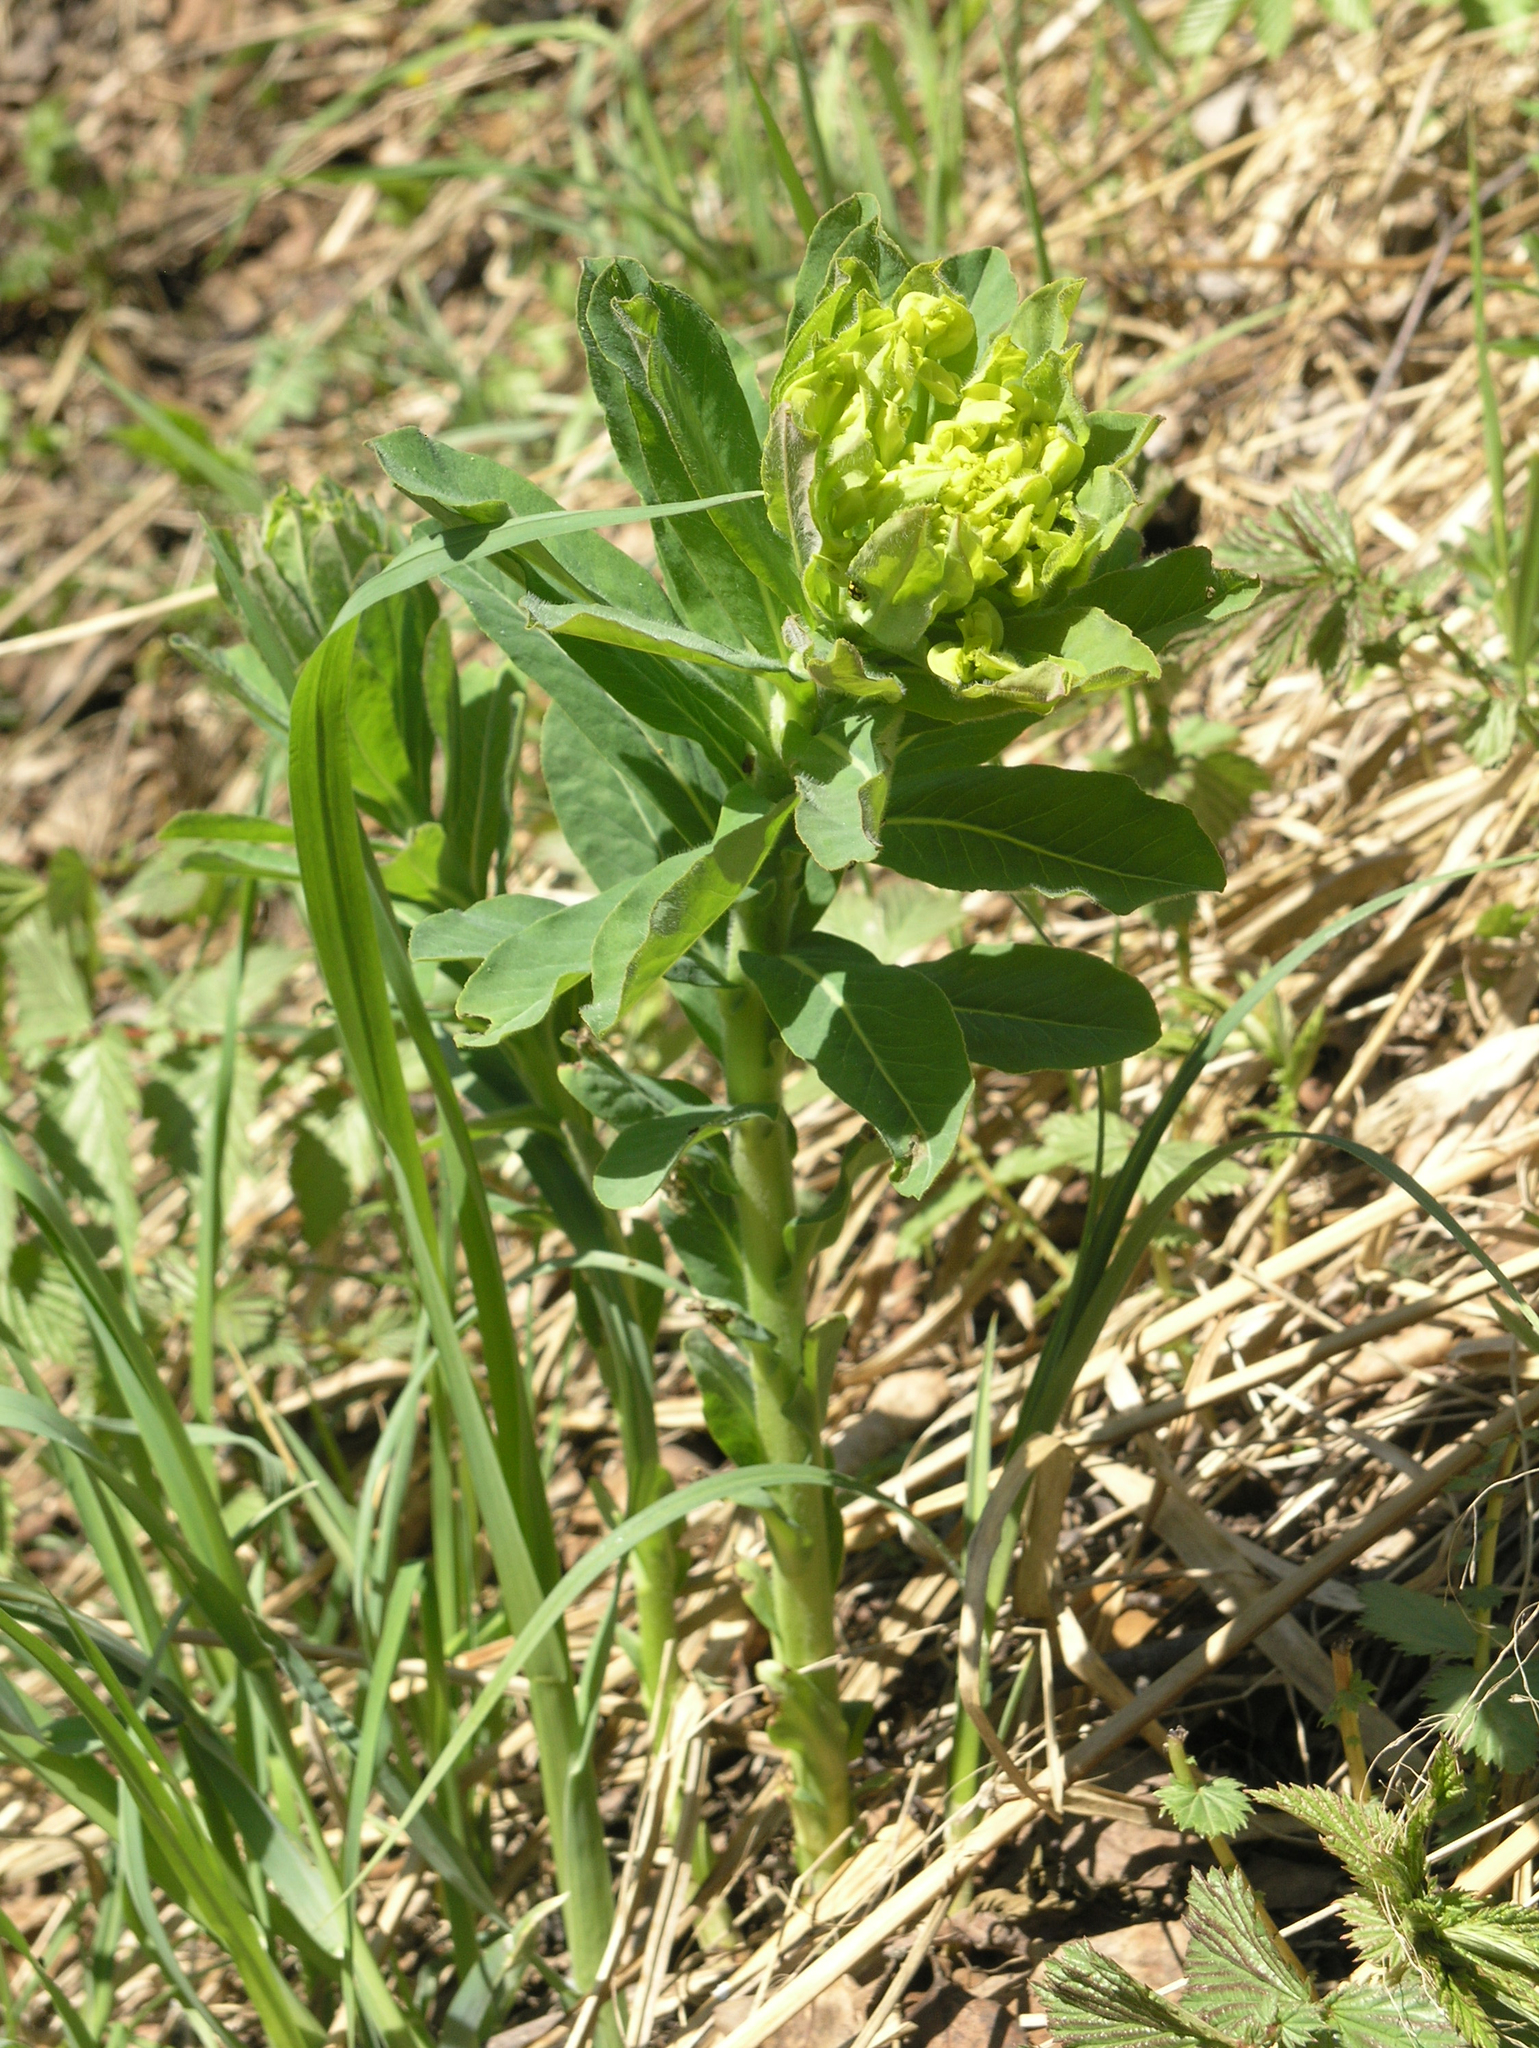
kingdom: Plantae
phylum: Tracheophyta
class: Magnoliopsida
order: Malpighiales
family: Euphorbiaceae
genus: Euphorbia
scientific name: Euphorbia pilosa
